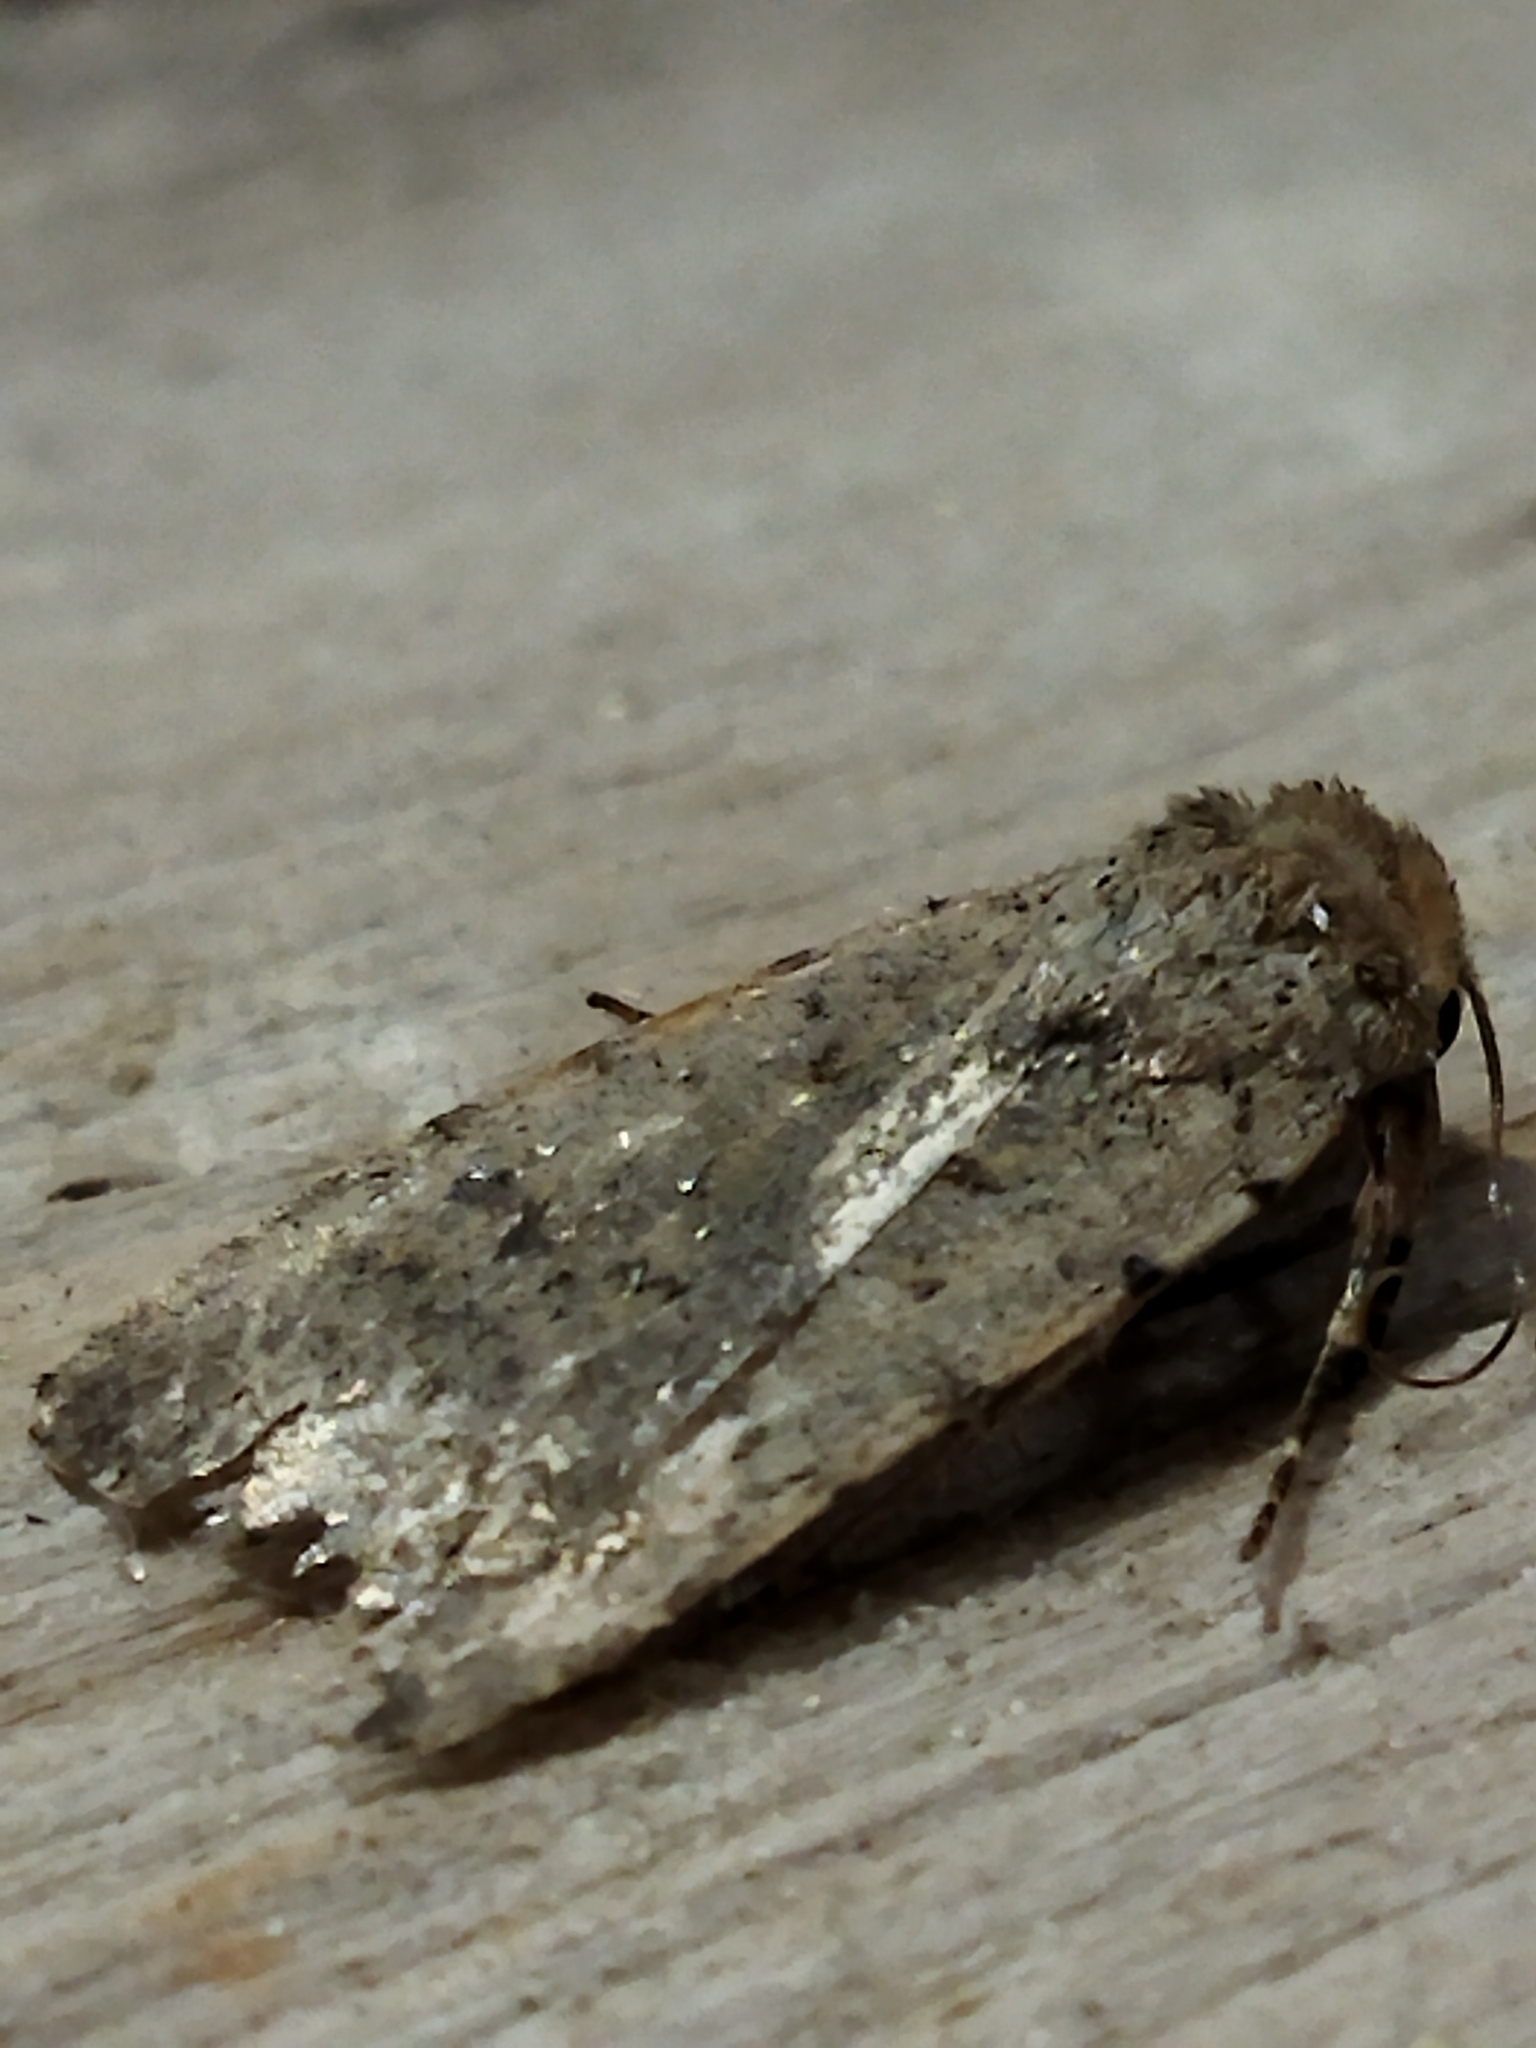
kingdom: Animalia
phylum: Arthropoda
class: Insecta
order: Lepidoptera
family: Noctuidae
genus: Caradrina
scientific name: Caradrina clavipalpis
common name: Pale mottled willow
